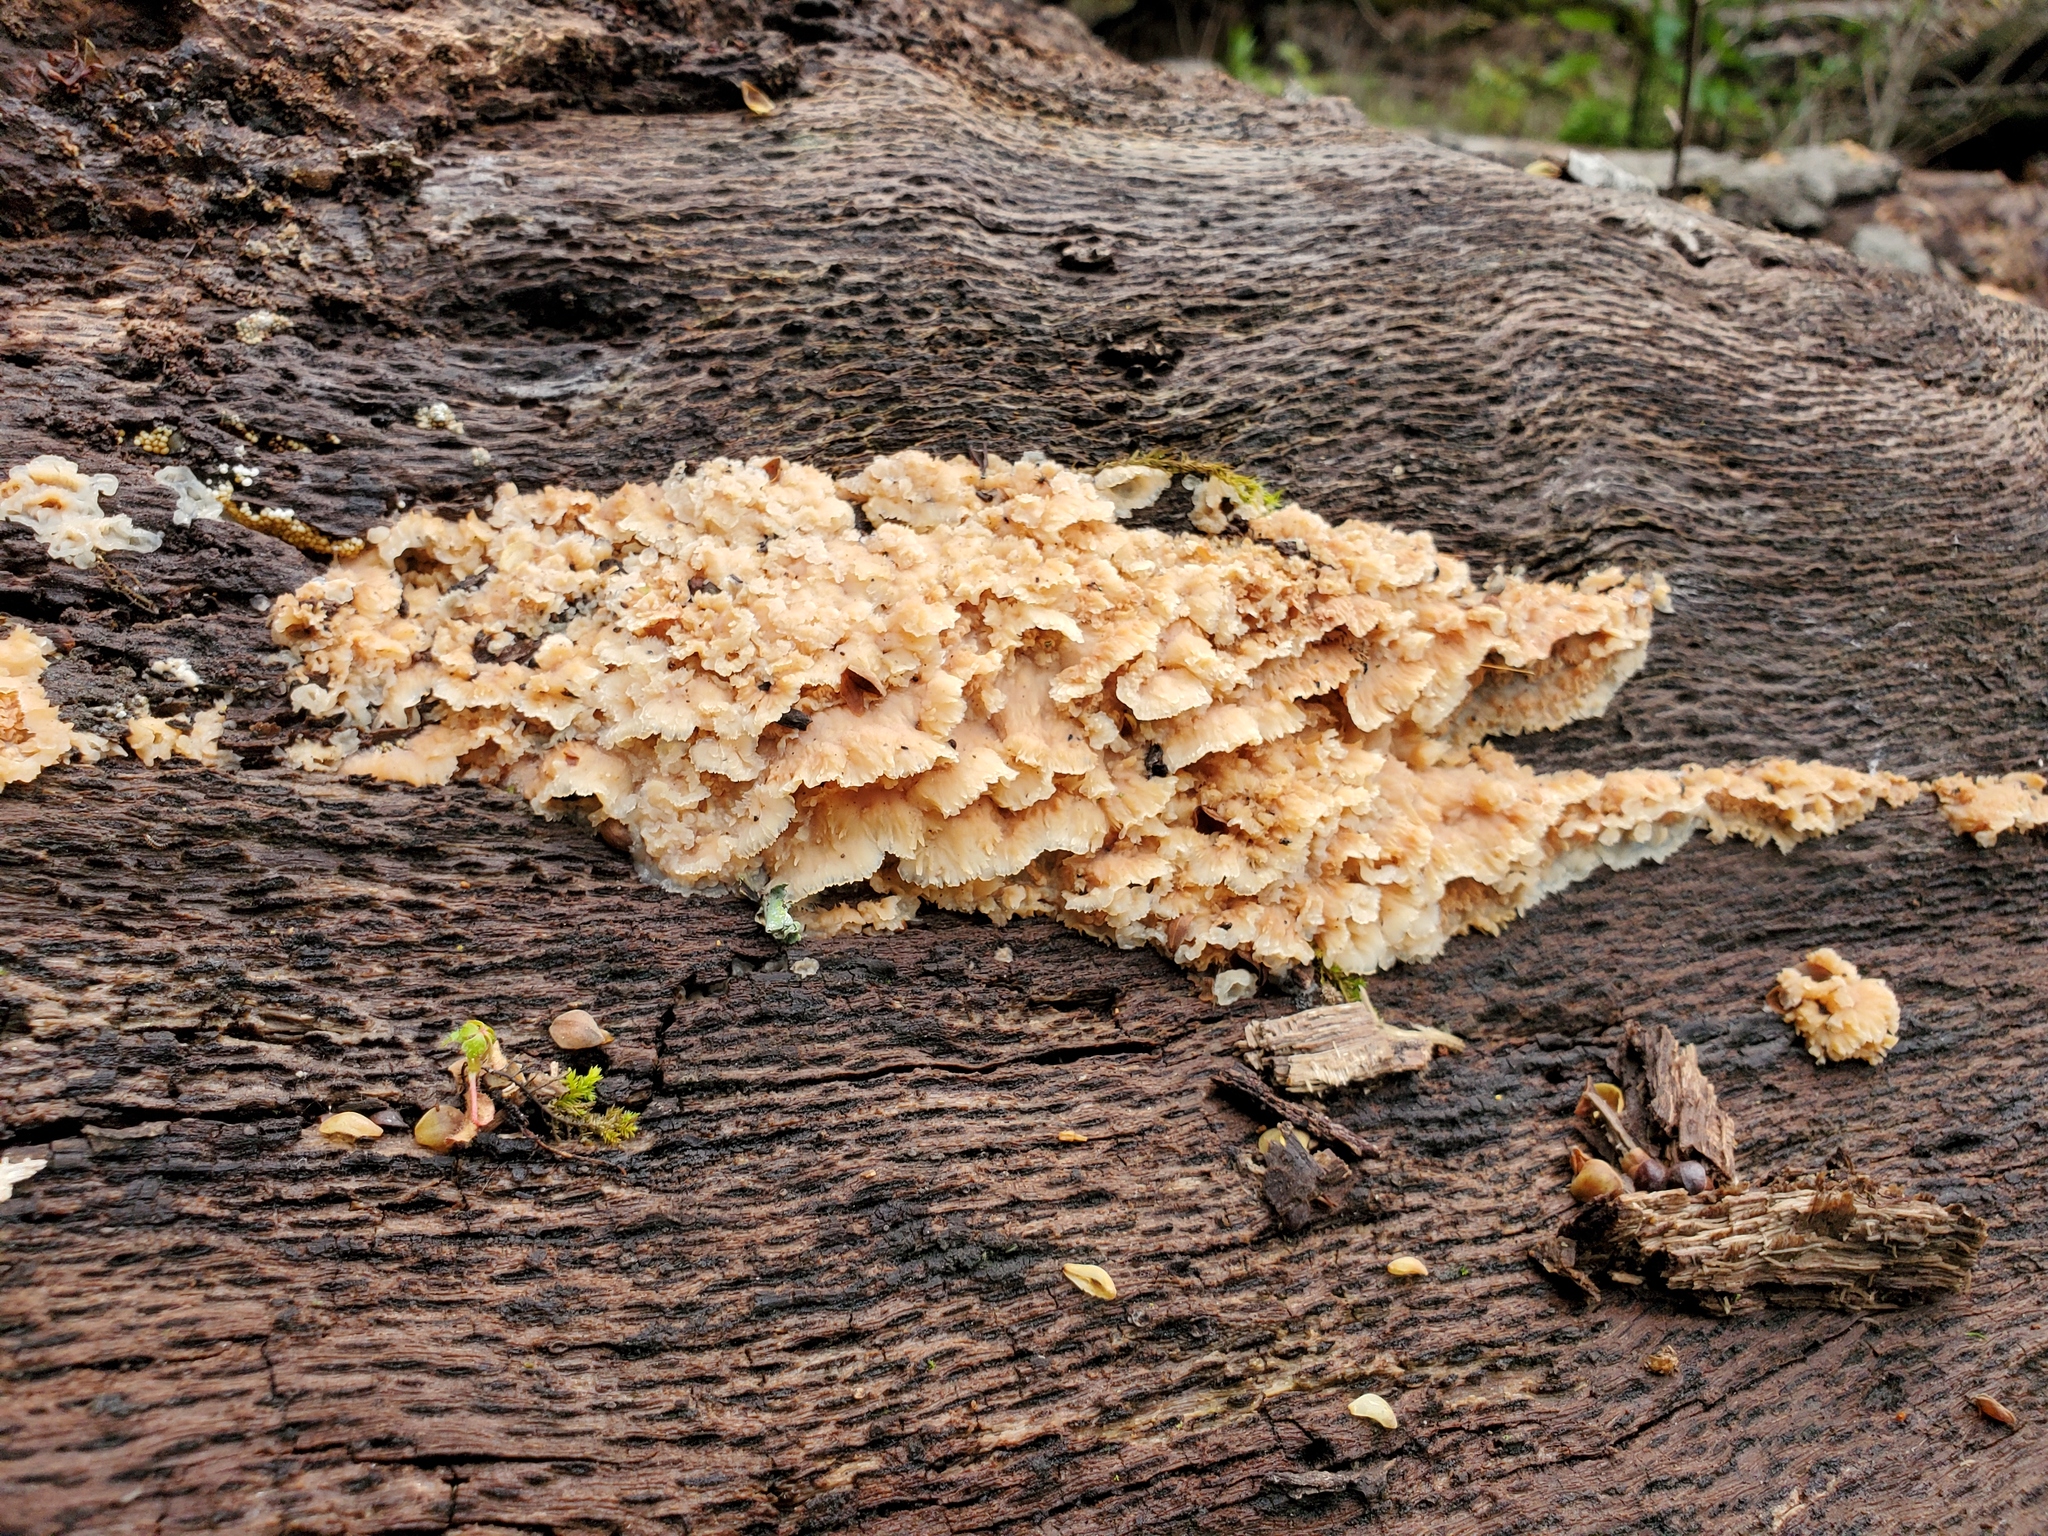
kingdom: Fungi
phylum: Basidiomycota
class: Agaricomycetes
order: Polyporales
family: Meruliaceae
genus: Phlebia
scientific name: Phlebia tremellosa
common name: Jelly rot
